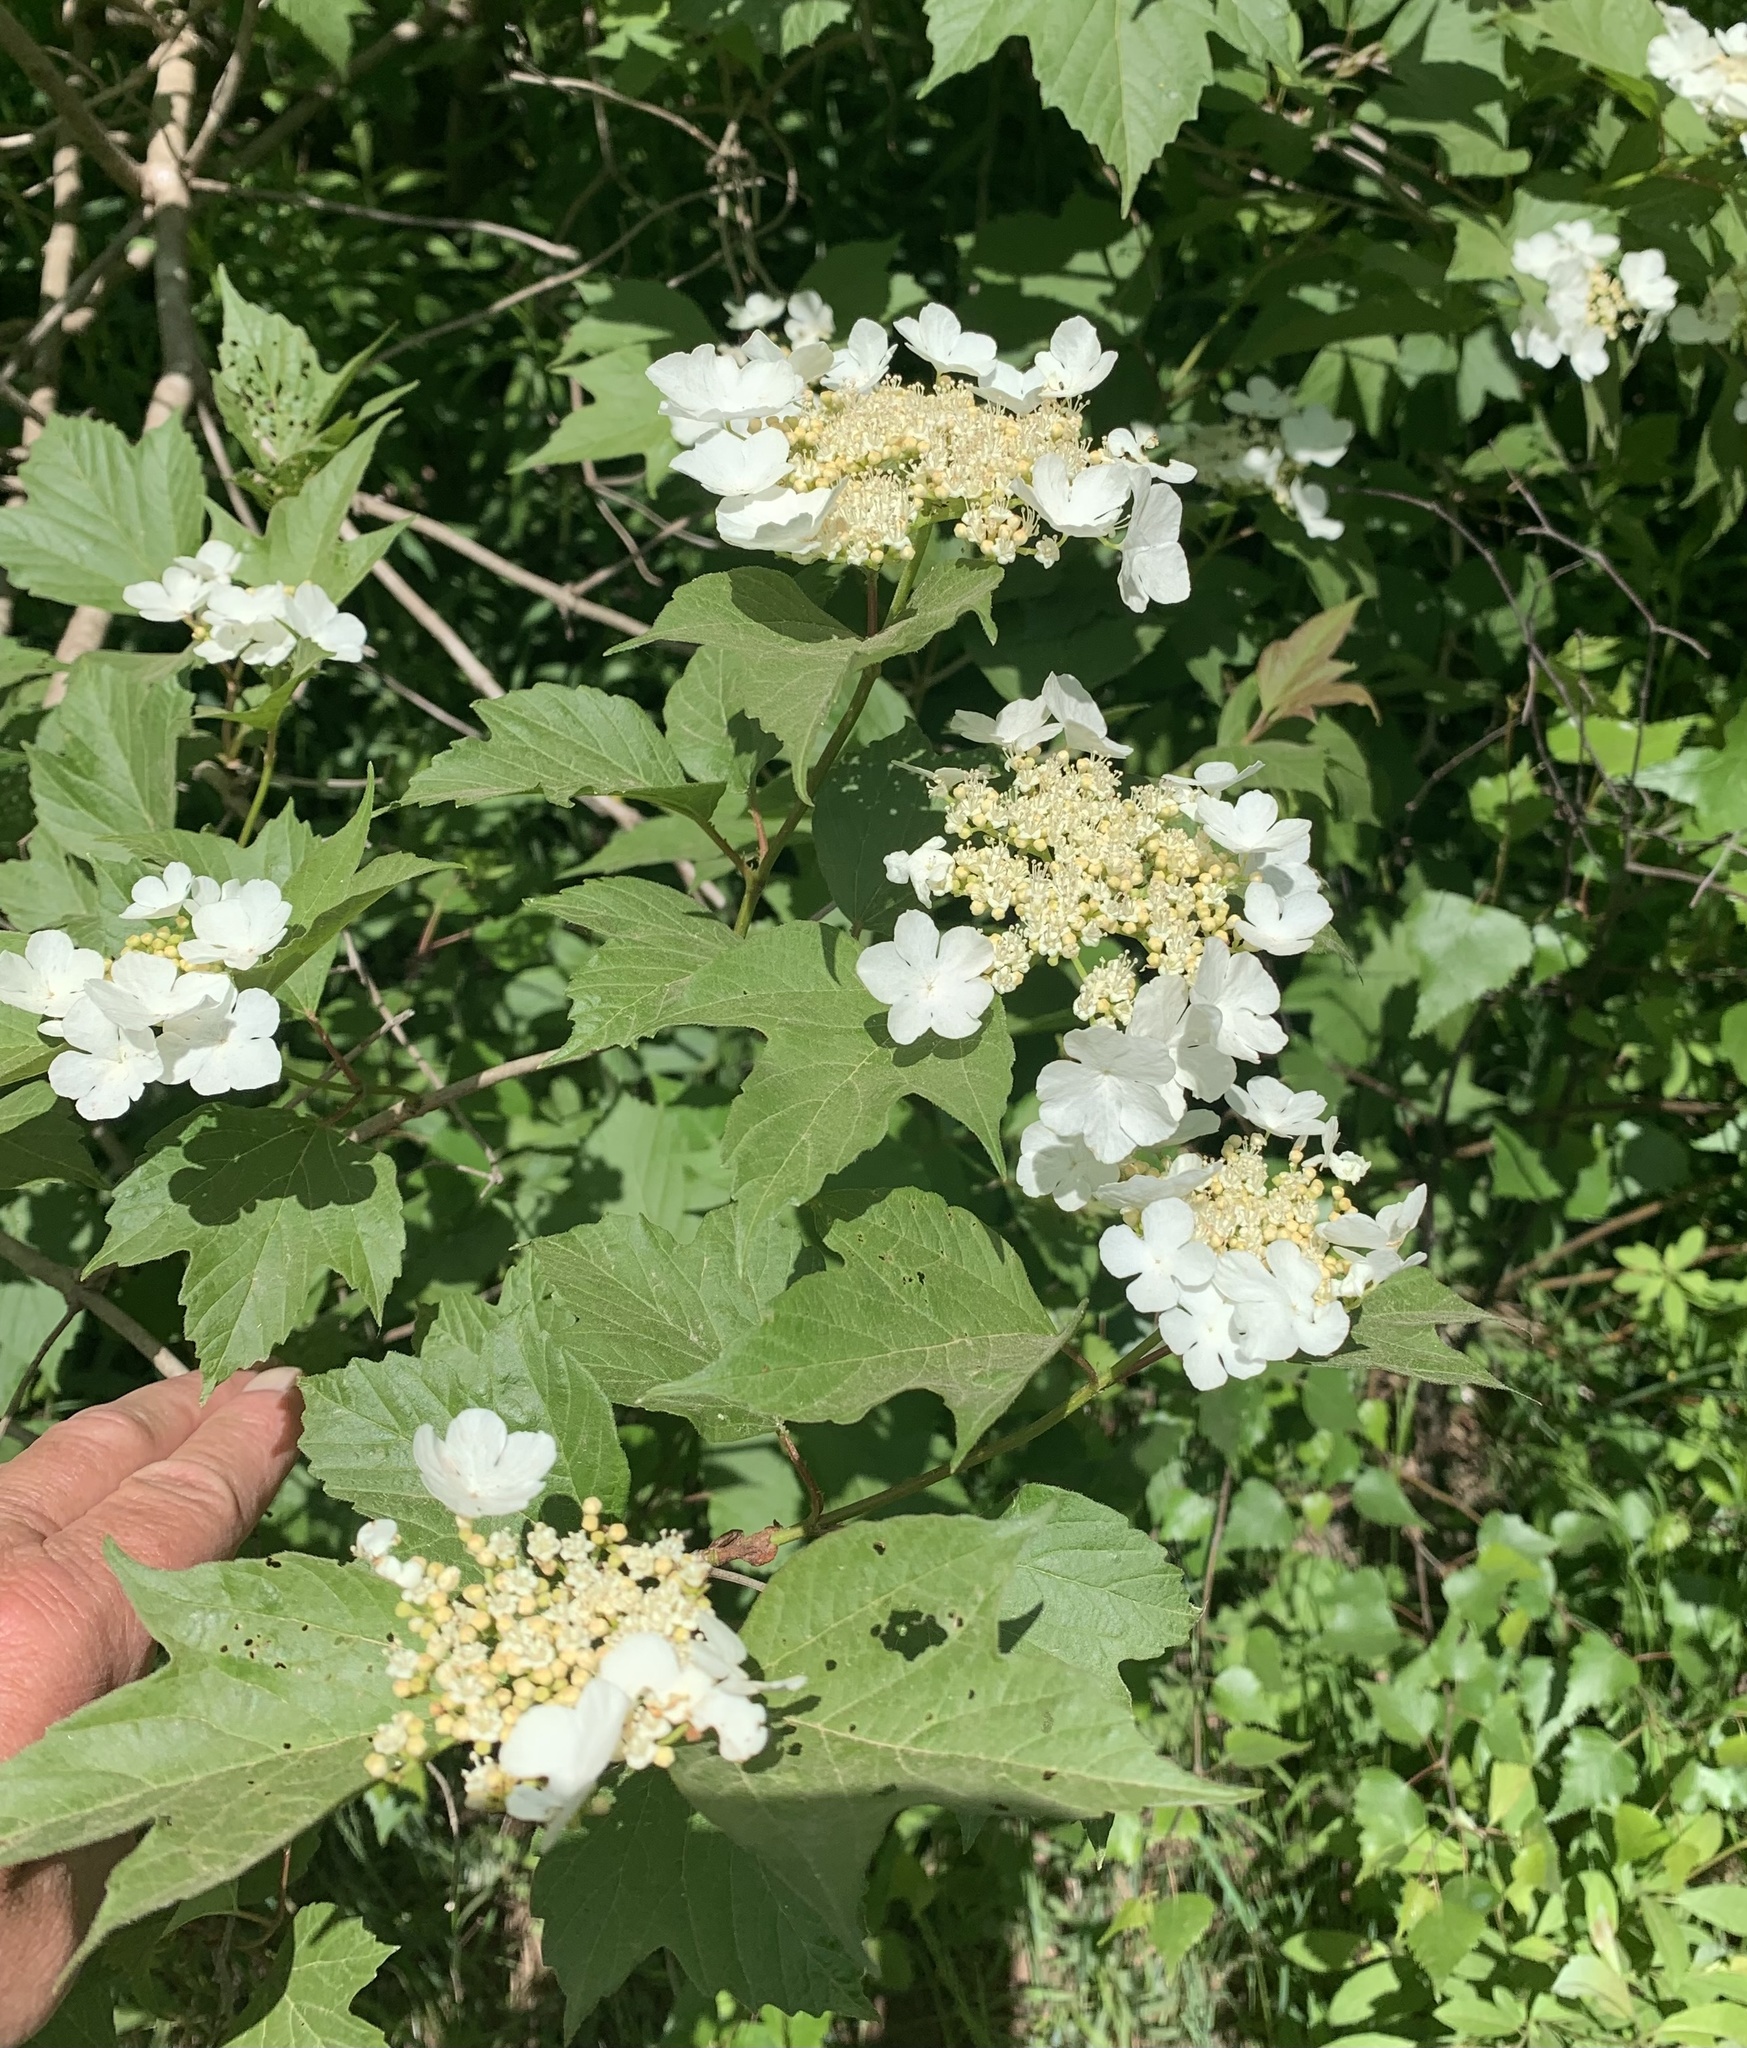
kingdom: Plantae
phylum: Tracheophyta
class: Magnoliopsida
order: Dipsacales
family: Viburnaceae
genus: Viburnum
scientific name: Viburnum opulus
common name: Guelder-rose
